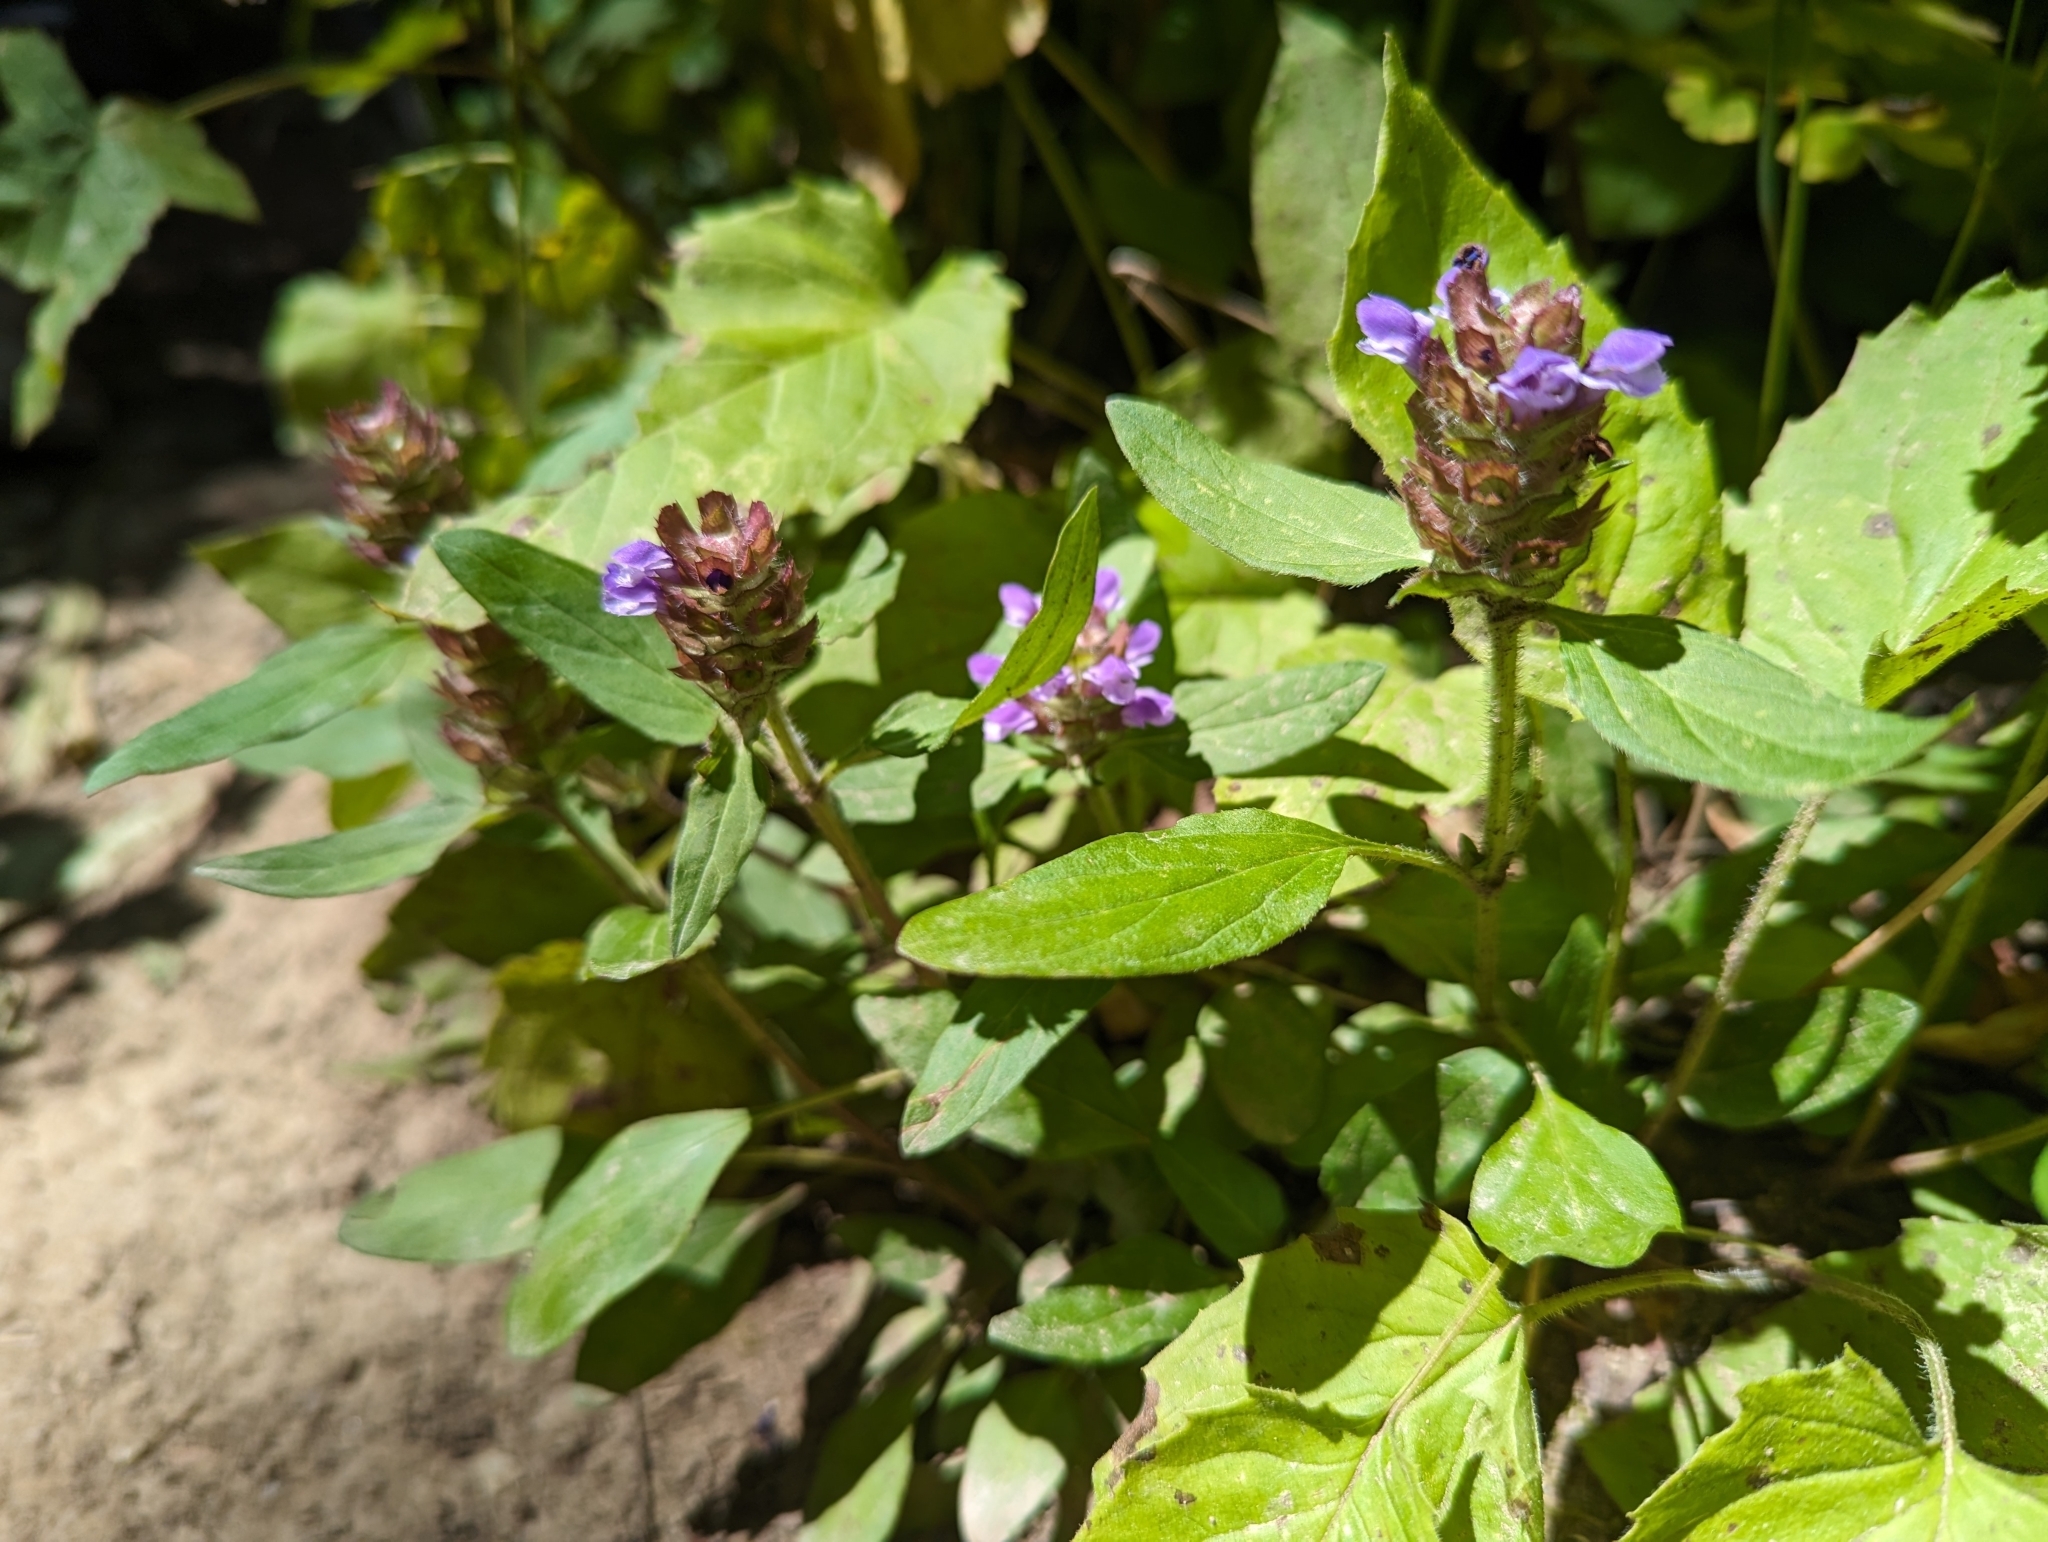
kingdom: Plantae
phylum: Tracheophyta
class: Magnoliopsida
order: Lamiales
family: Lamiaceae
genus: Prunella
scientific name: Prunella vulgaris
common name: Heal-all
